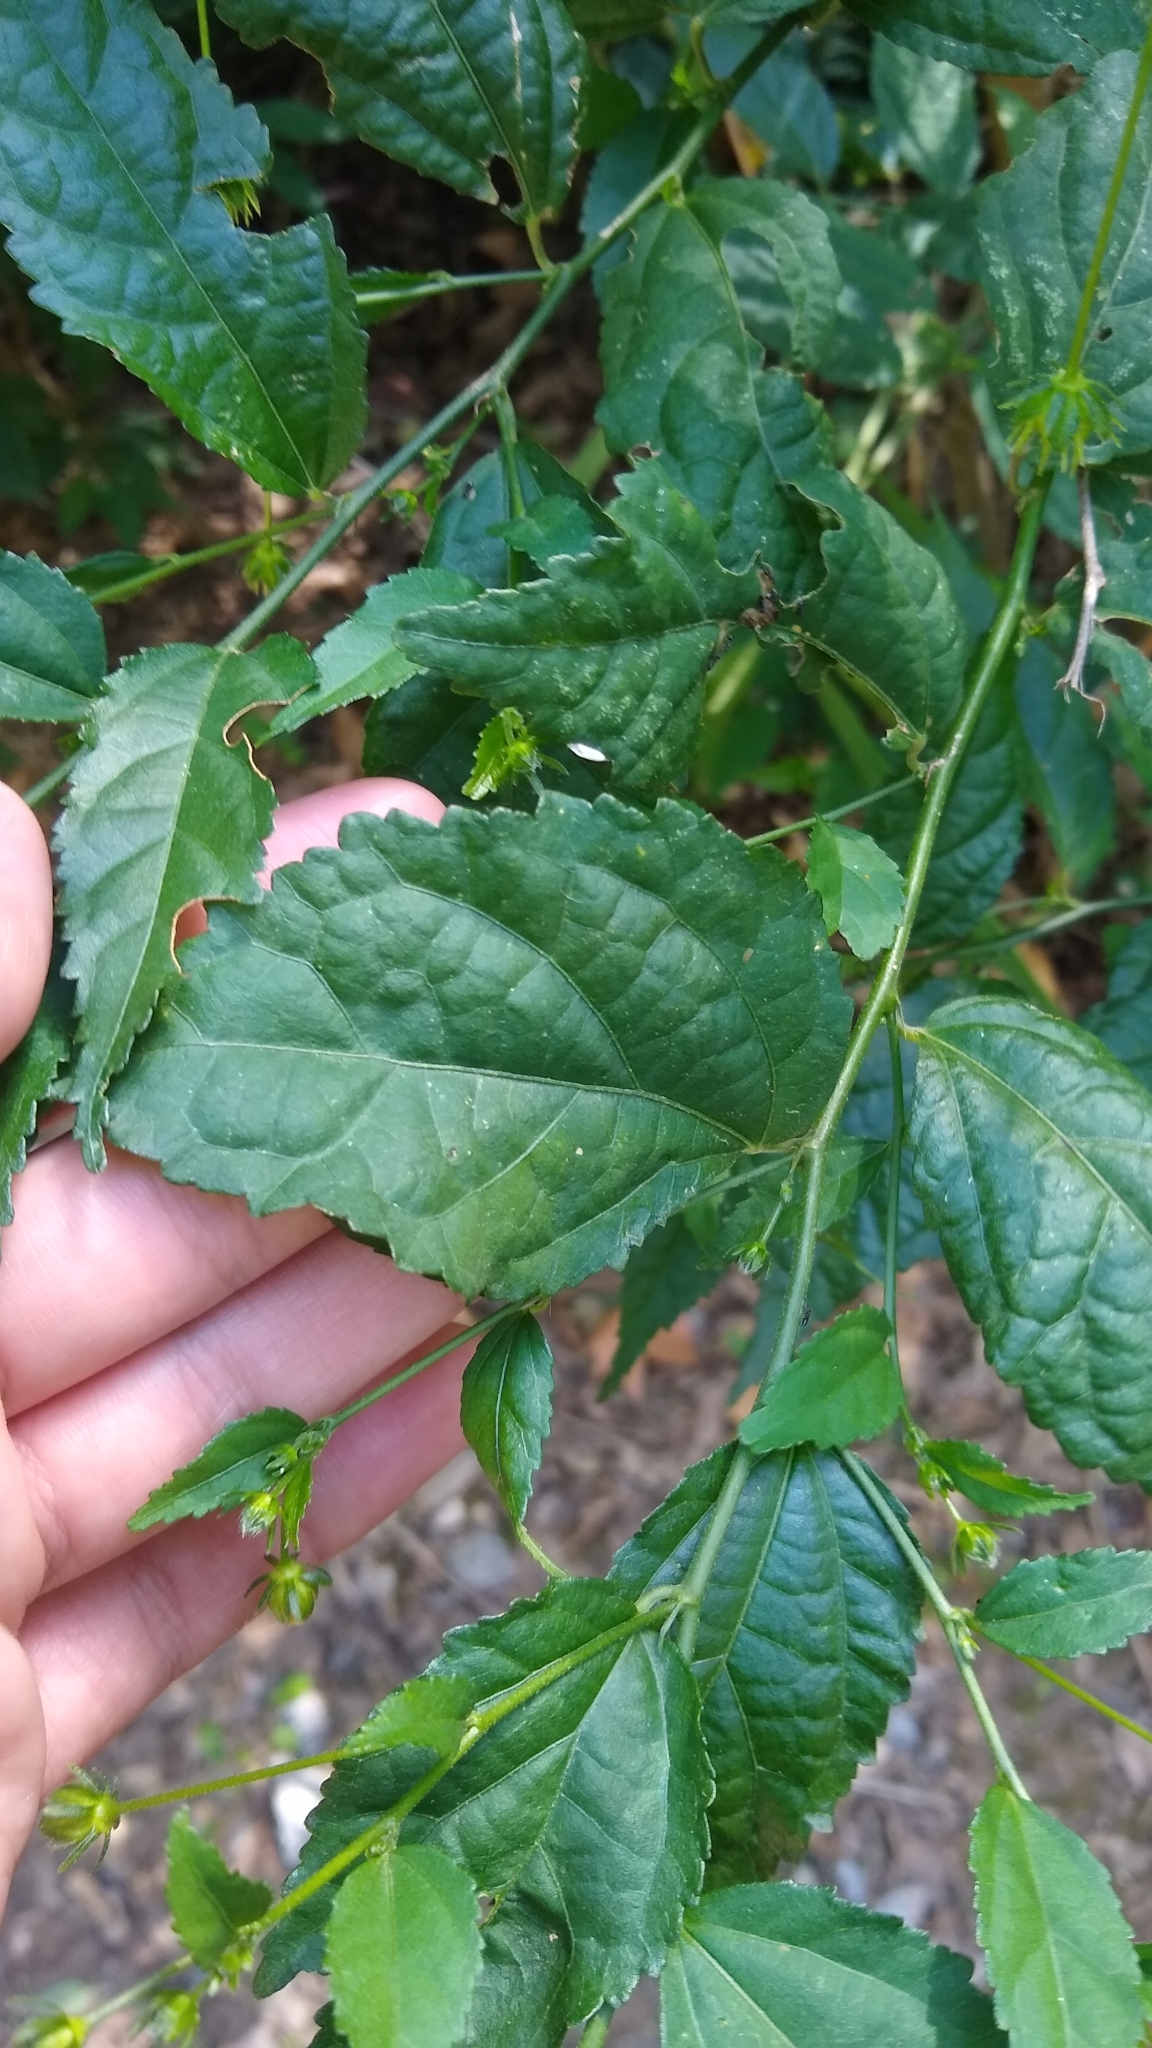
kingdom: Plantae
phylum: Tracheophyta
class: Magnoliopsida
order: Malvales
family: Malvaceae
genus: Pavonia
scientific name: Pavonia sepium
